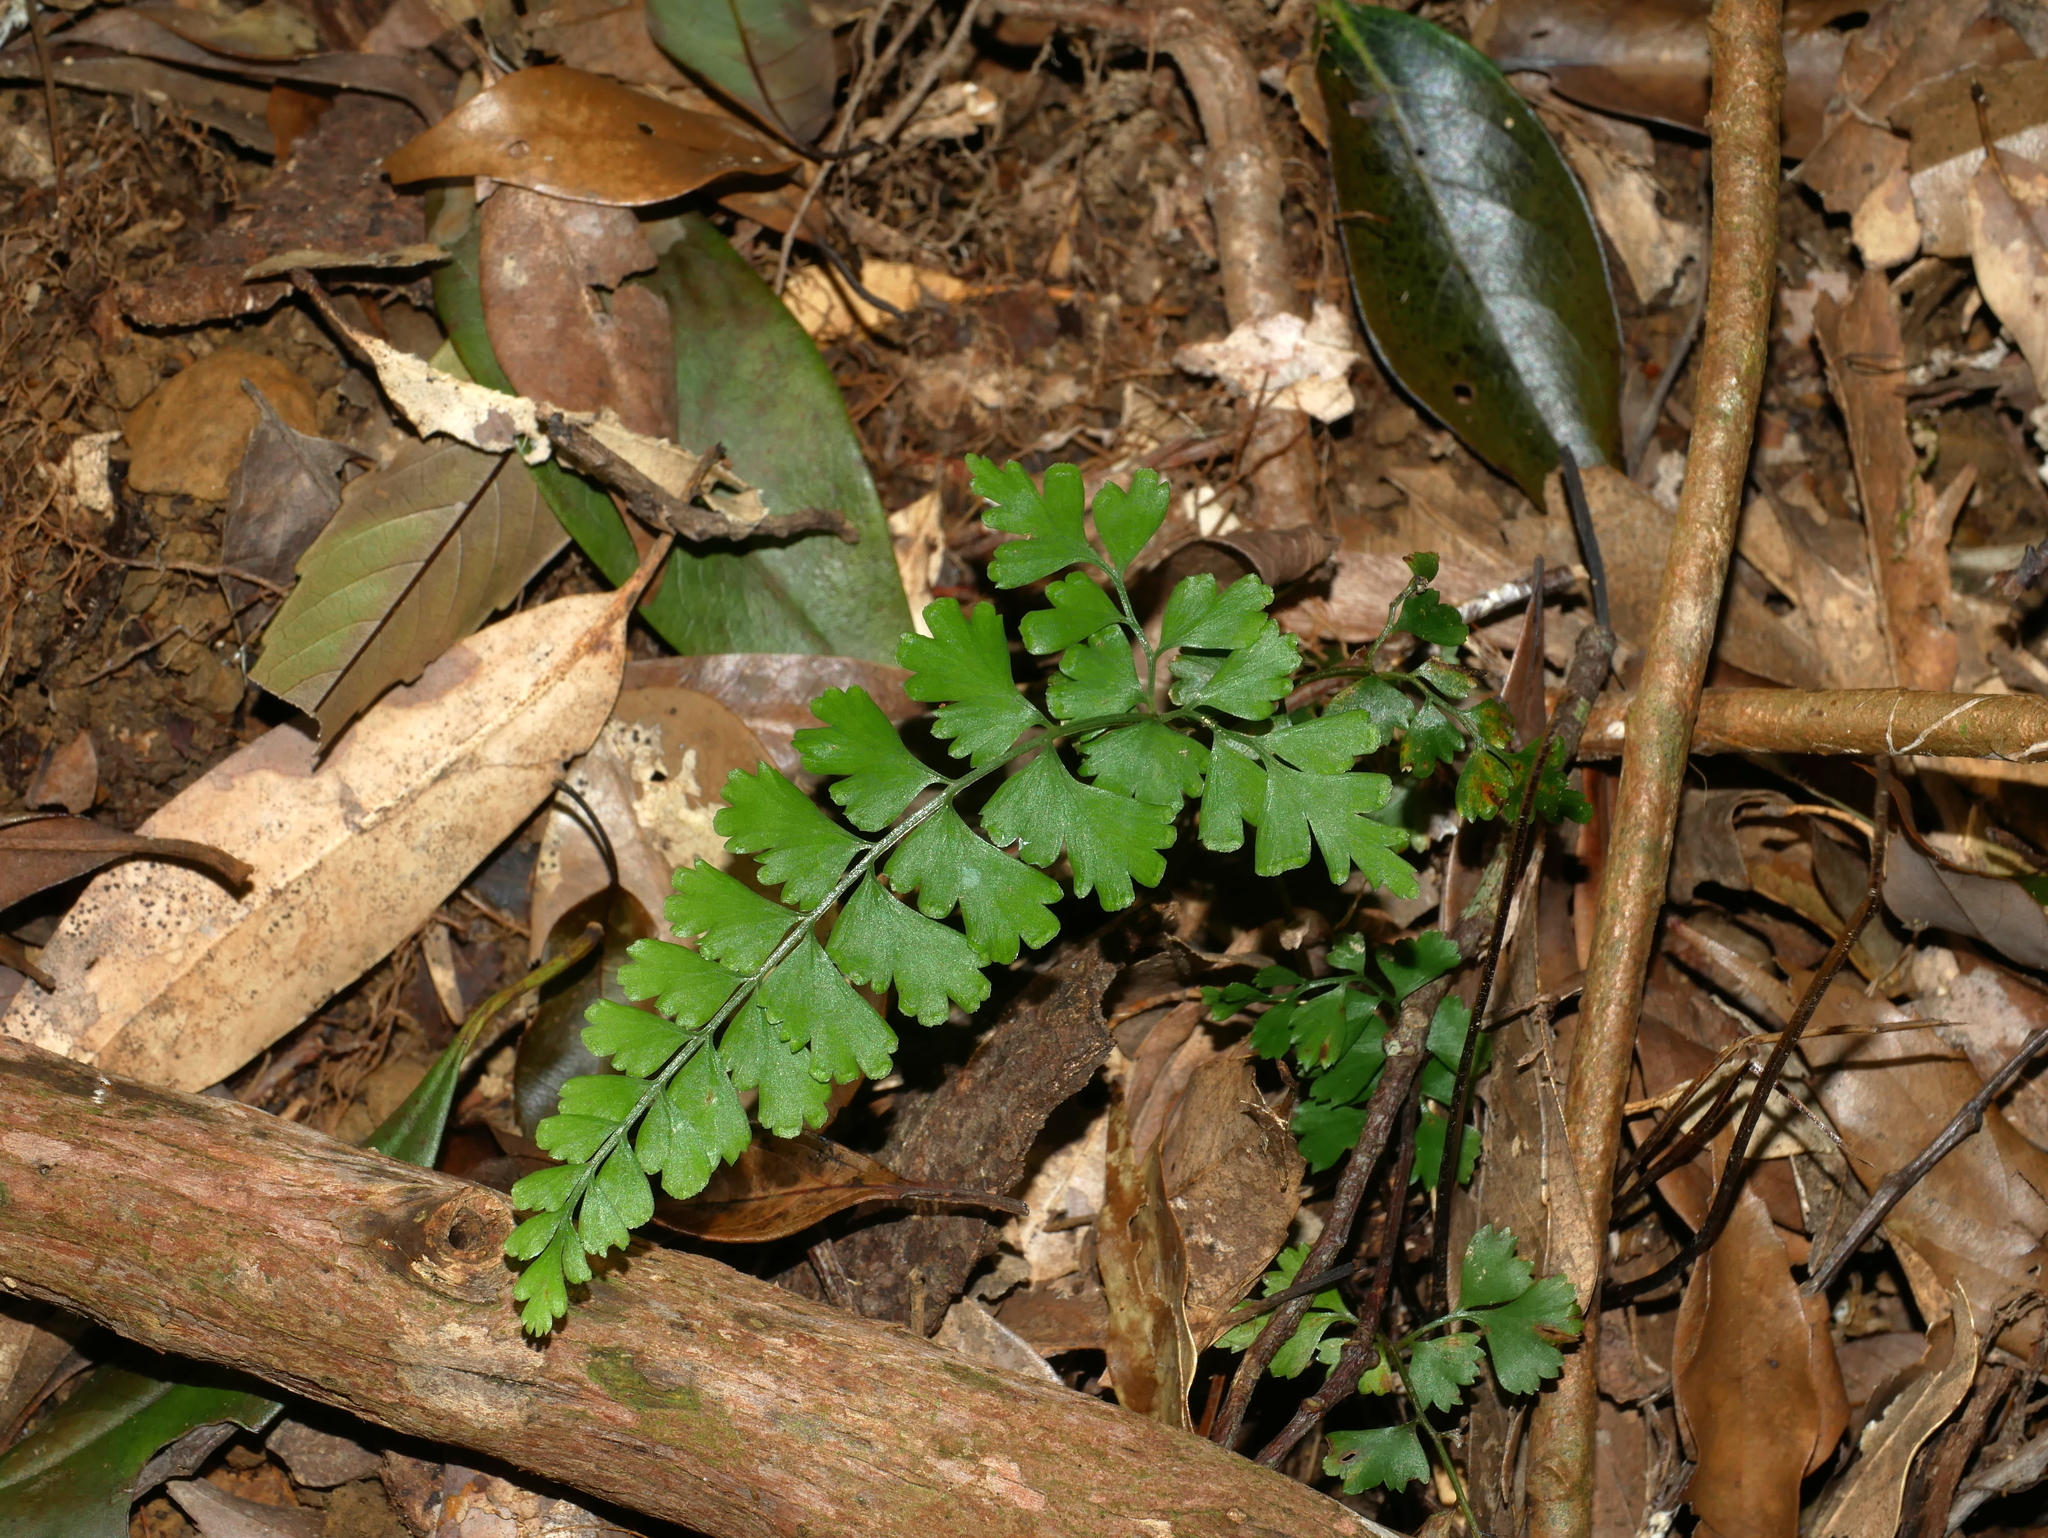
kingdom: Plantae
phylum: Tracheophyta
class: Polypodiopsida
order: Polypodiales
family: Lindsaeaceae
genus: Lindsaea
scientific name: Lindsaea chienii
